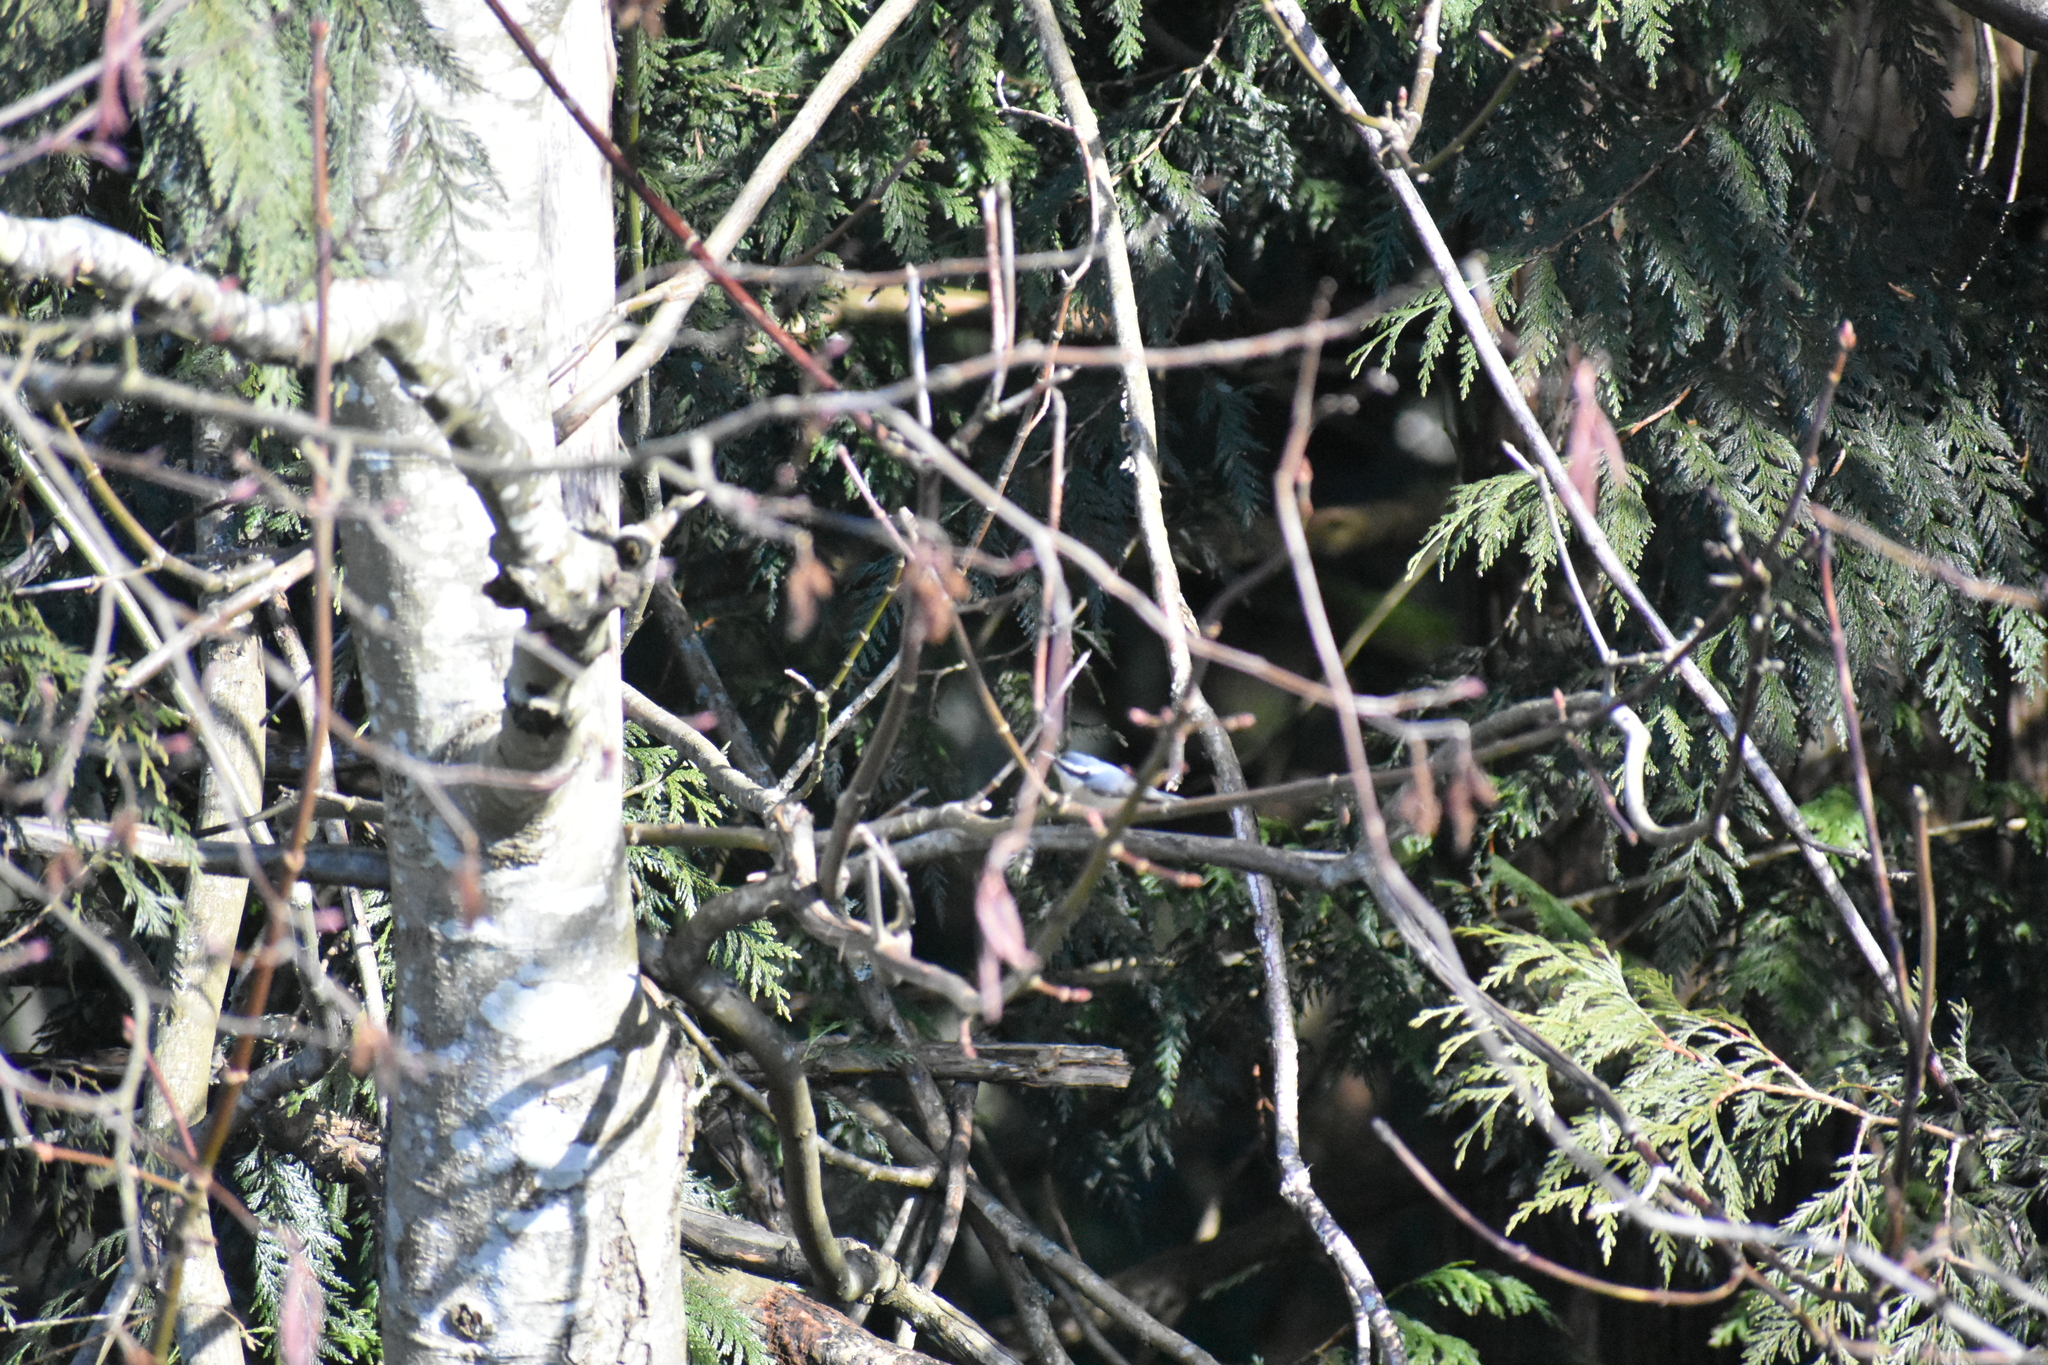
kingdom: Animalia
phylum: Chordata
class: Aves
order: Passeriformes
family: Sittidae
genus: Sitta
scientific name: Sitta canadensis
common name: Red-breasted nuthatch
